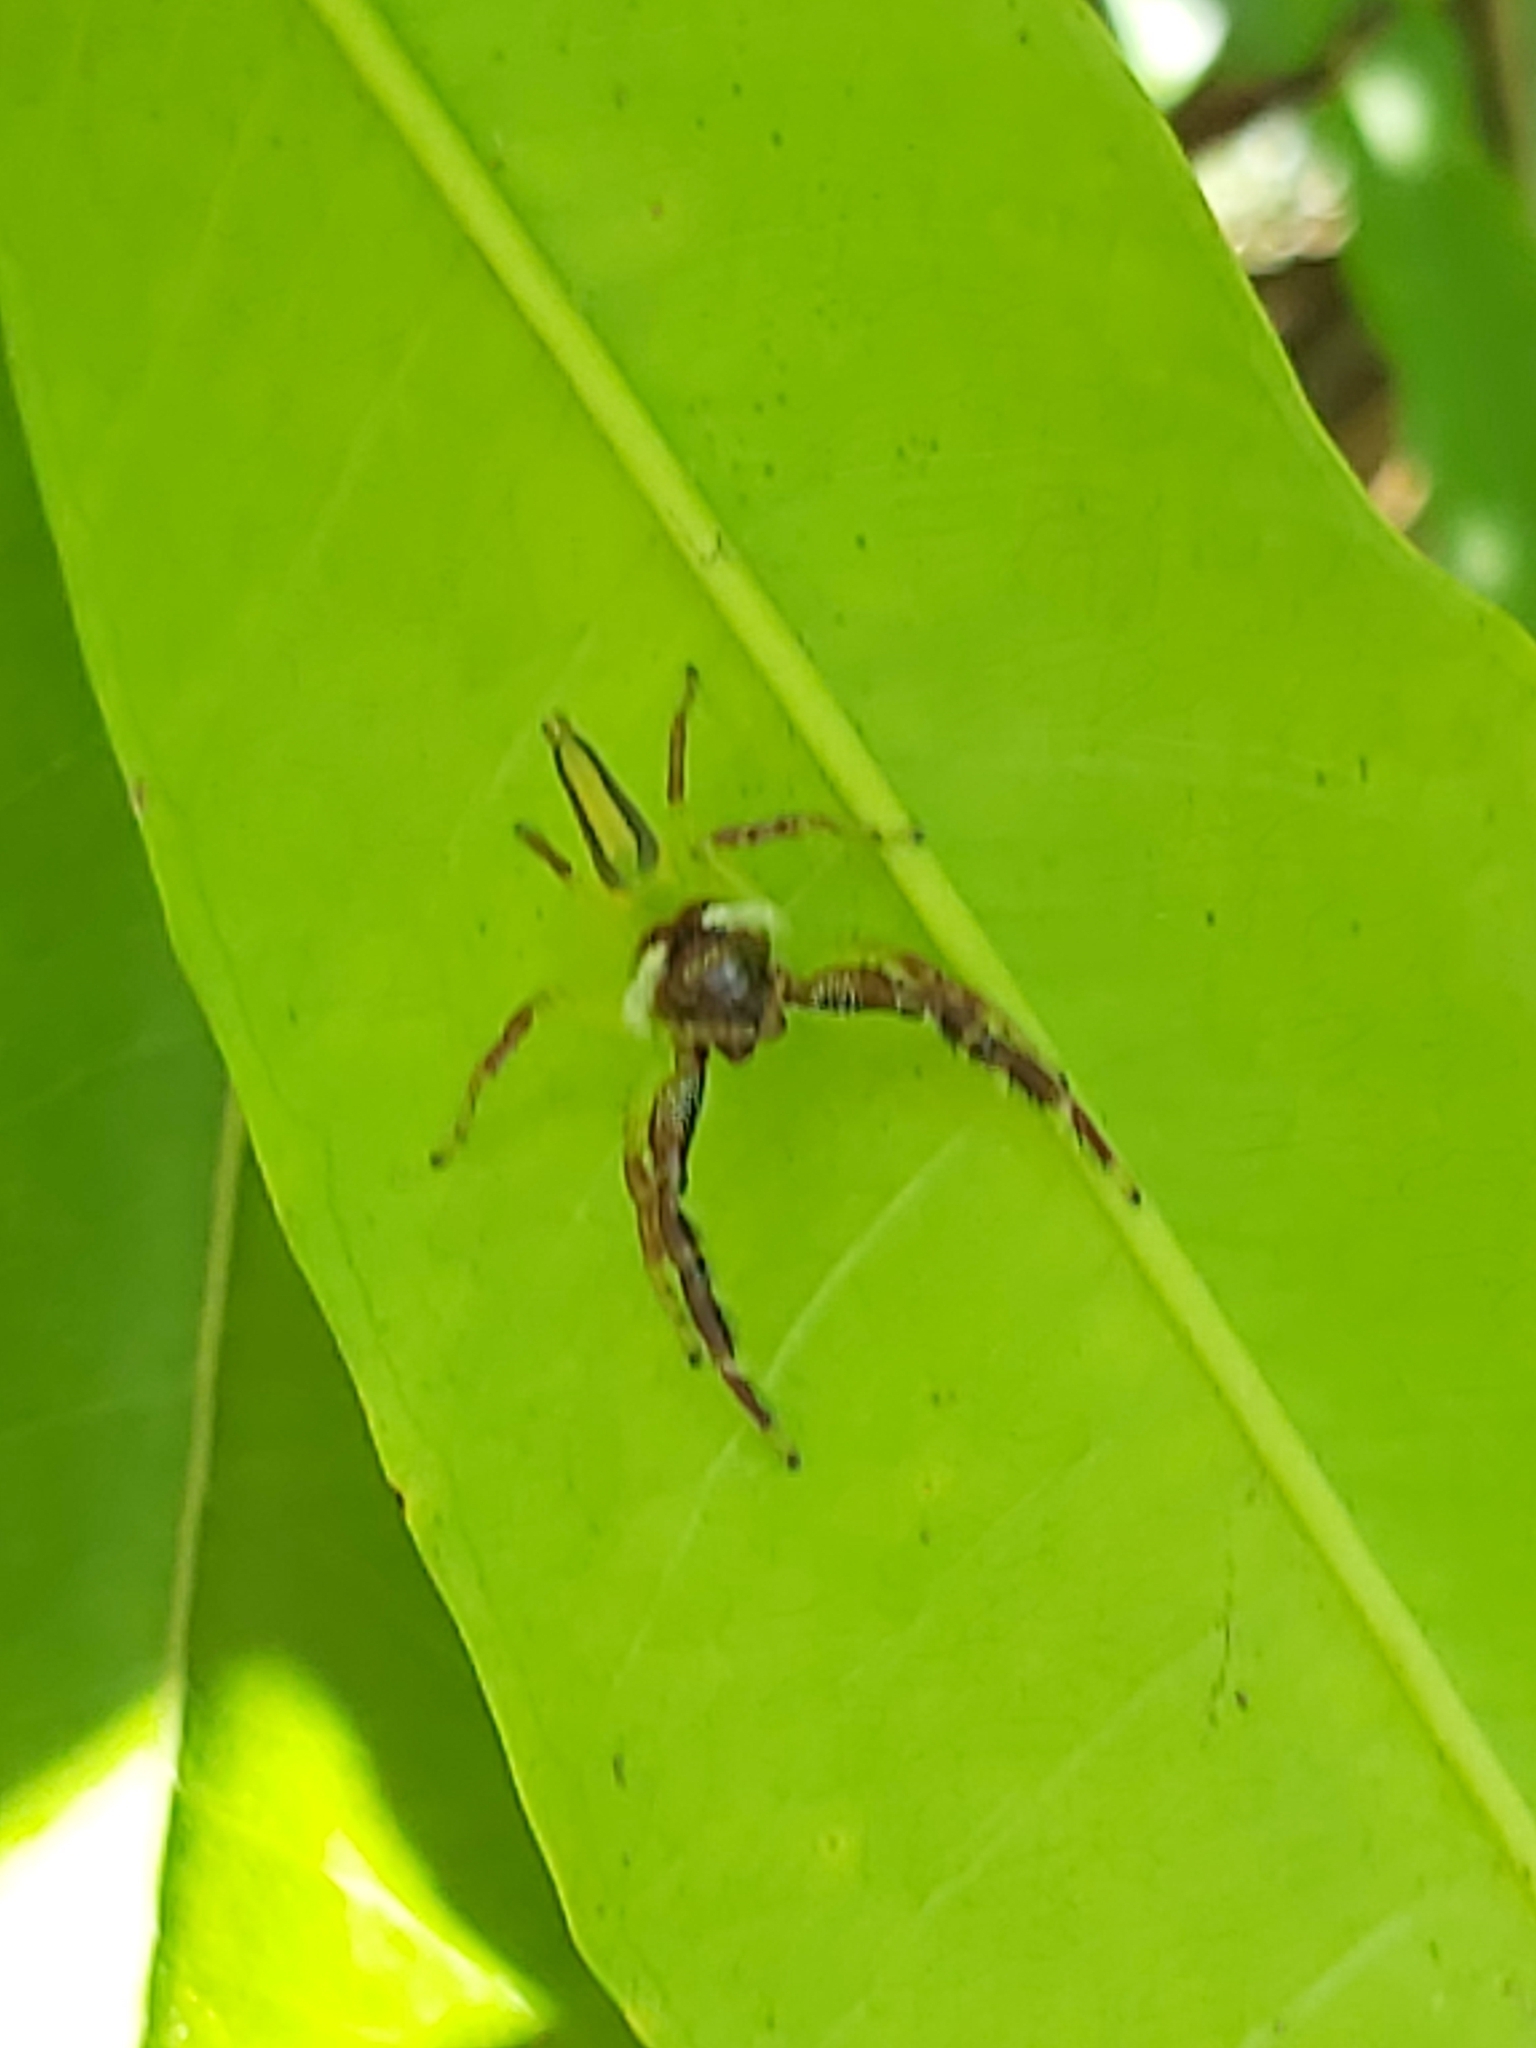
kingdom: Animalia
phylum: Arthropoda
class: Arachnida
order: Araneae
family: Salticidae
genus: Mopsus
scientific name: Mopsus mormon
